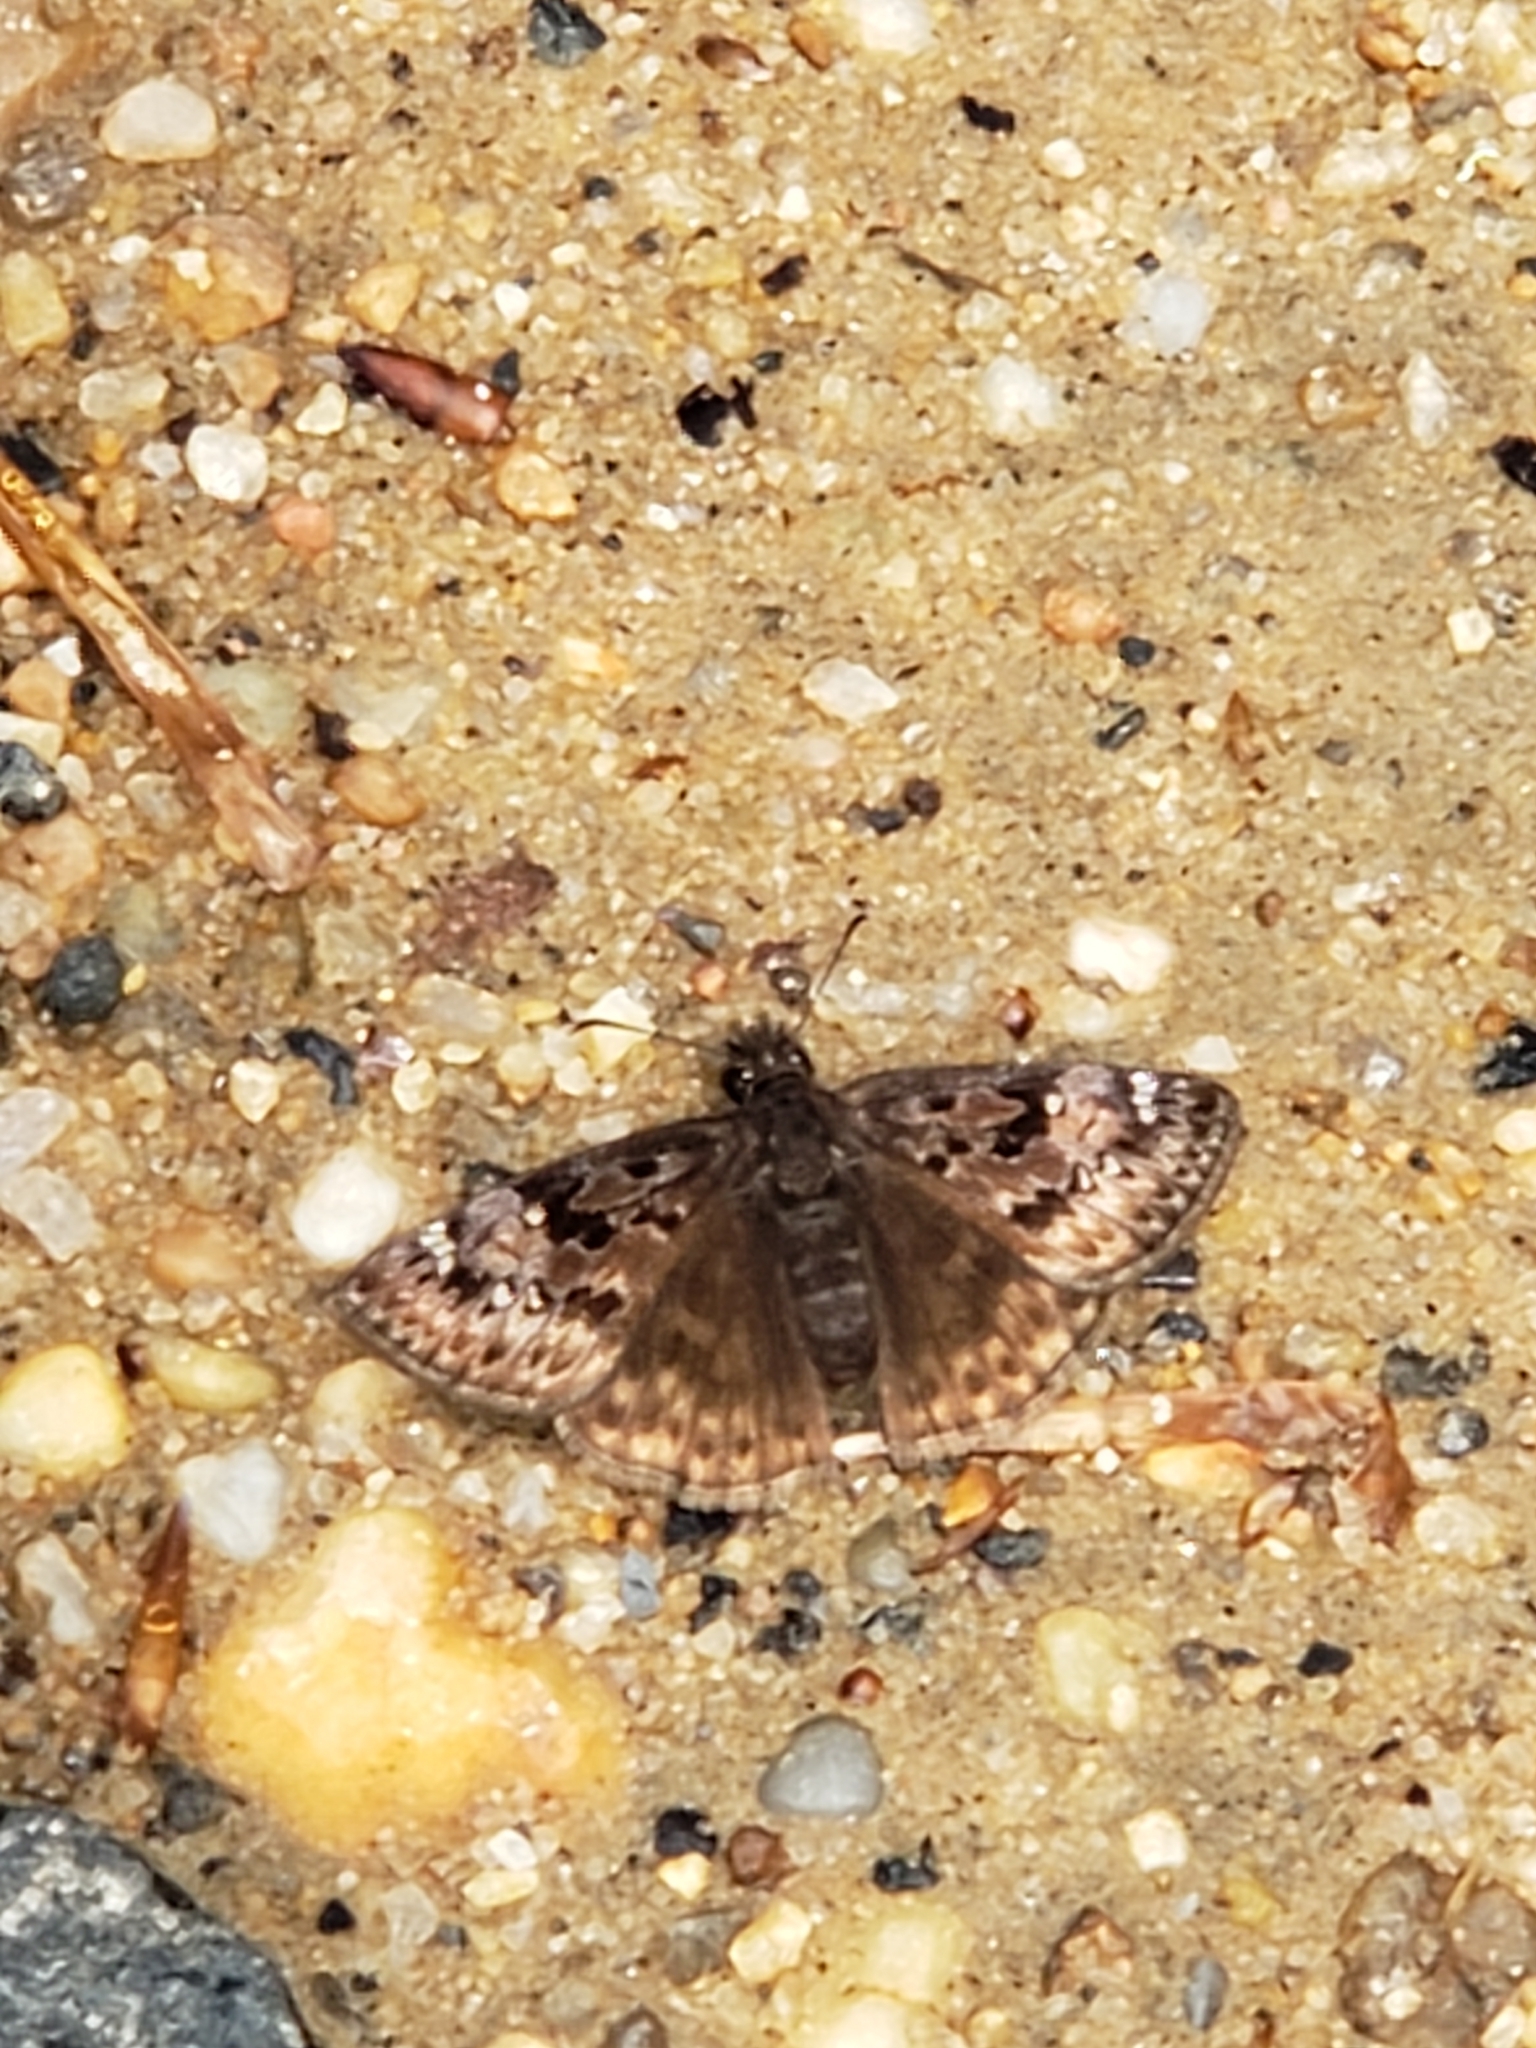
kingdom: Animalia
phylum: Arthropoda
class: Insecta
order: Lepidoptera
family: Hesperiidae
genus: Erynnis
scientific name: Erynnis horatius
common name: Horace's duskywing
